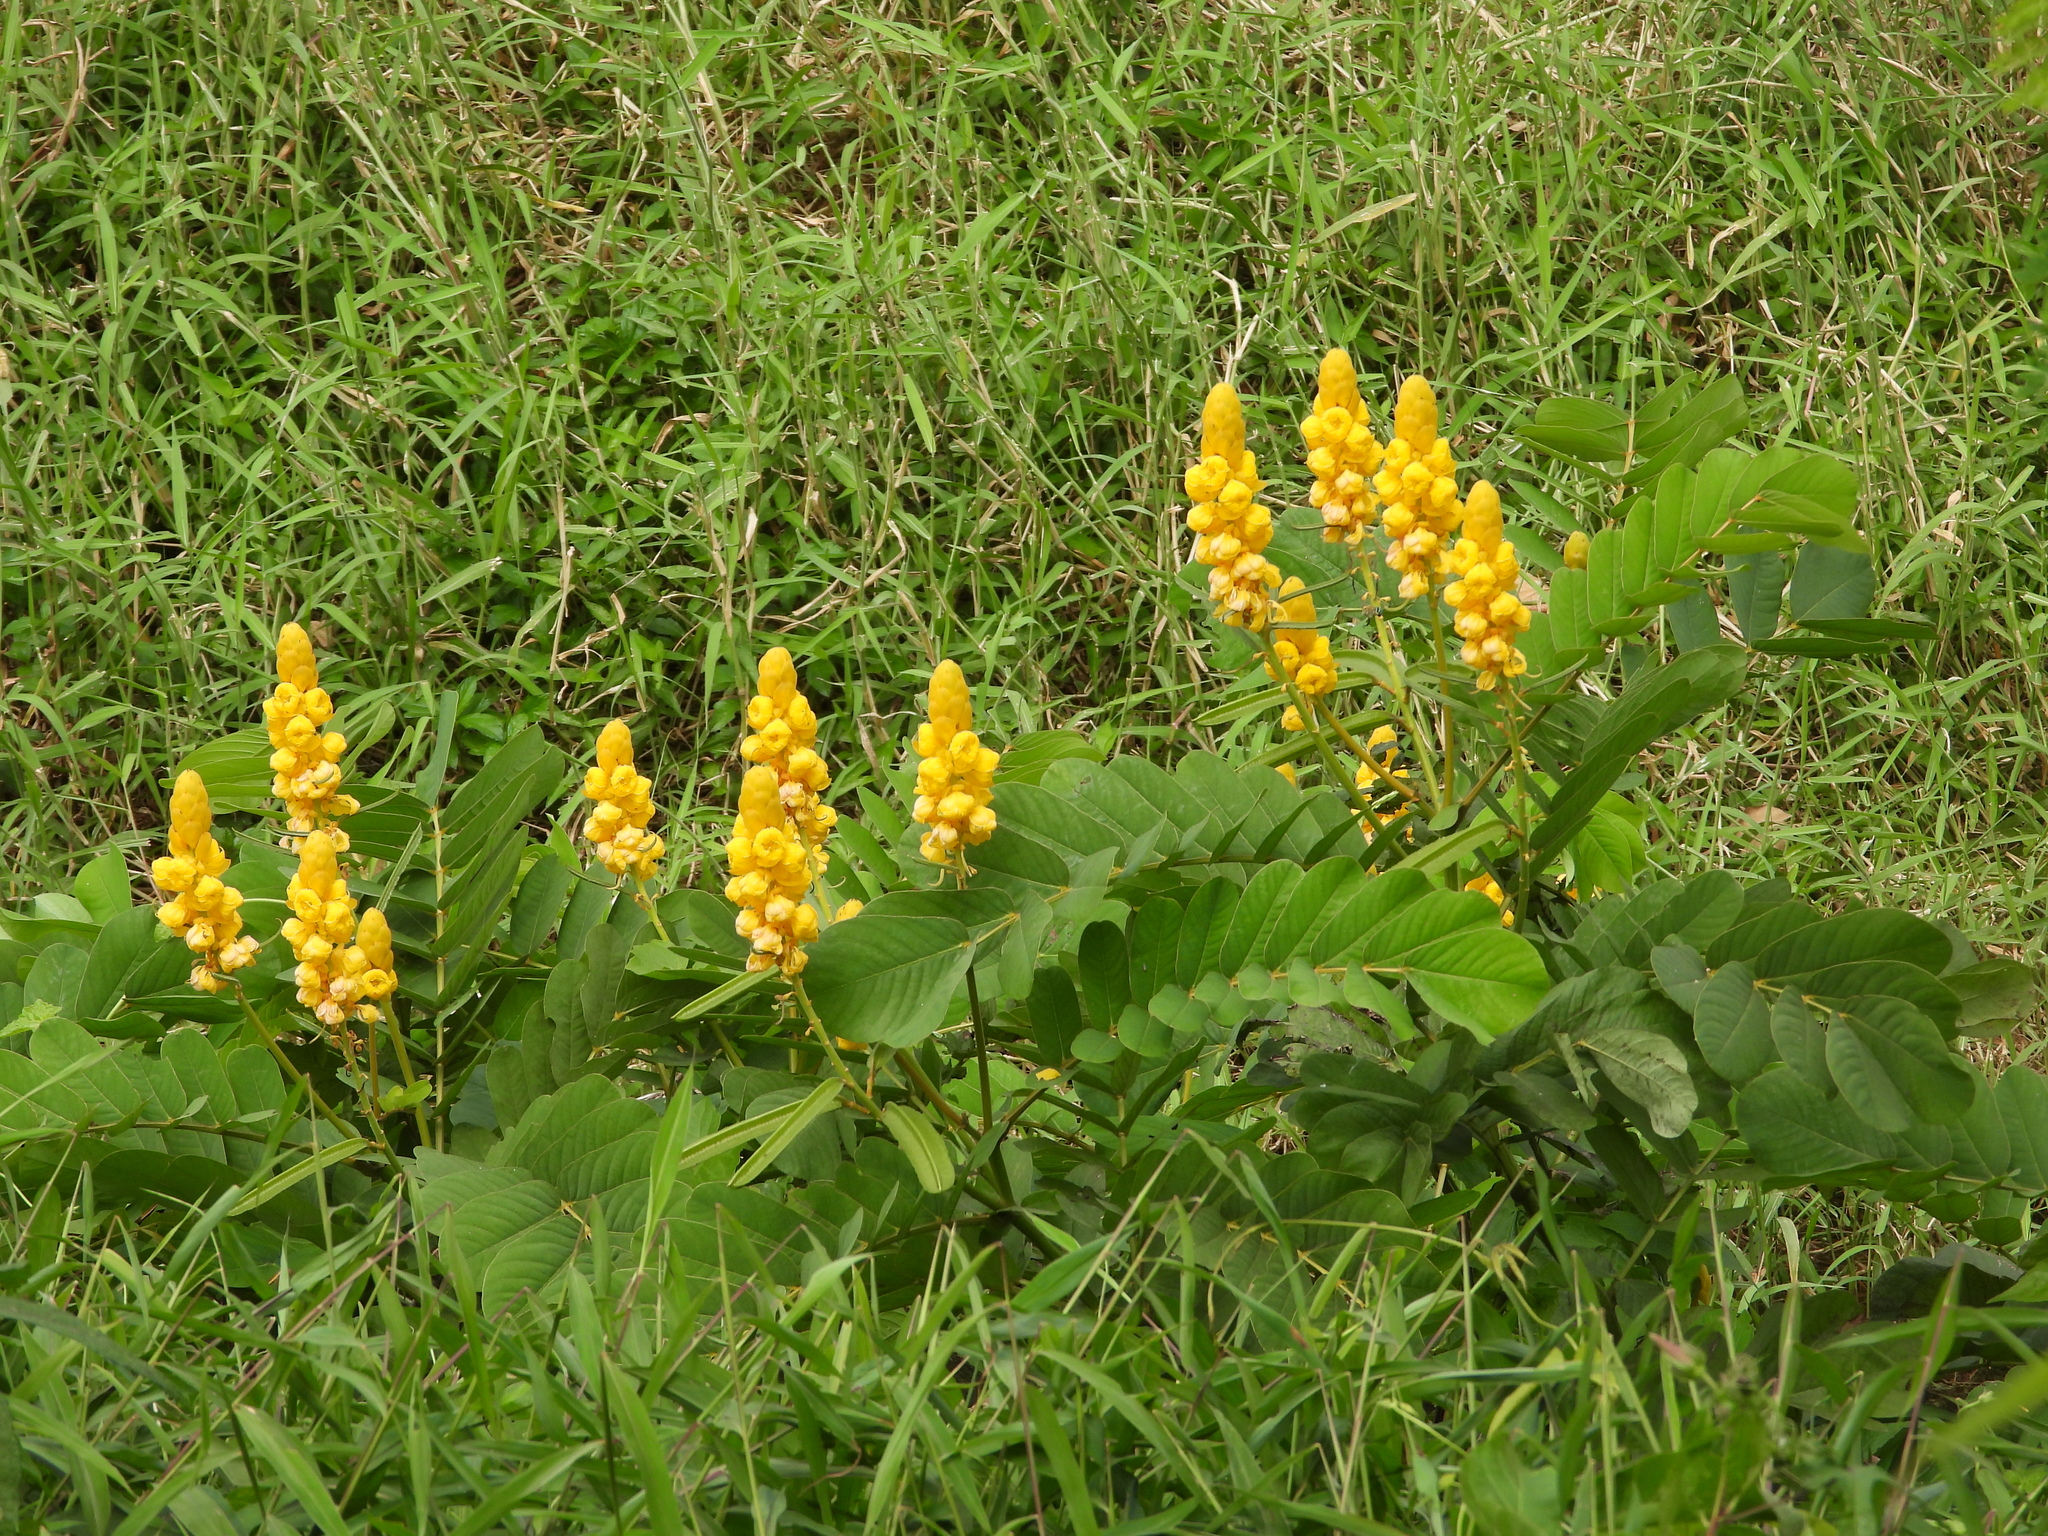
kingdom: Plantae
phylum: Tracheophyta
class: Magnoliopsida
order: Fabales
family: Fabaceae
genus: Senna
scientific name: Senna alata
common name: Emperor's candlesticks
